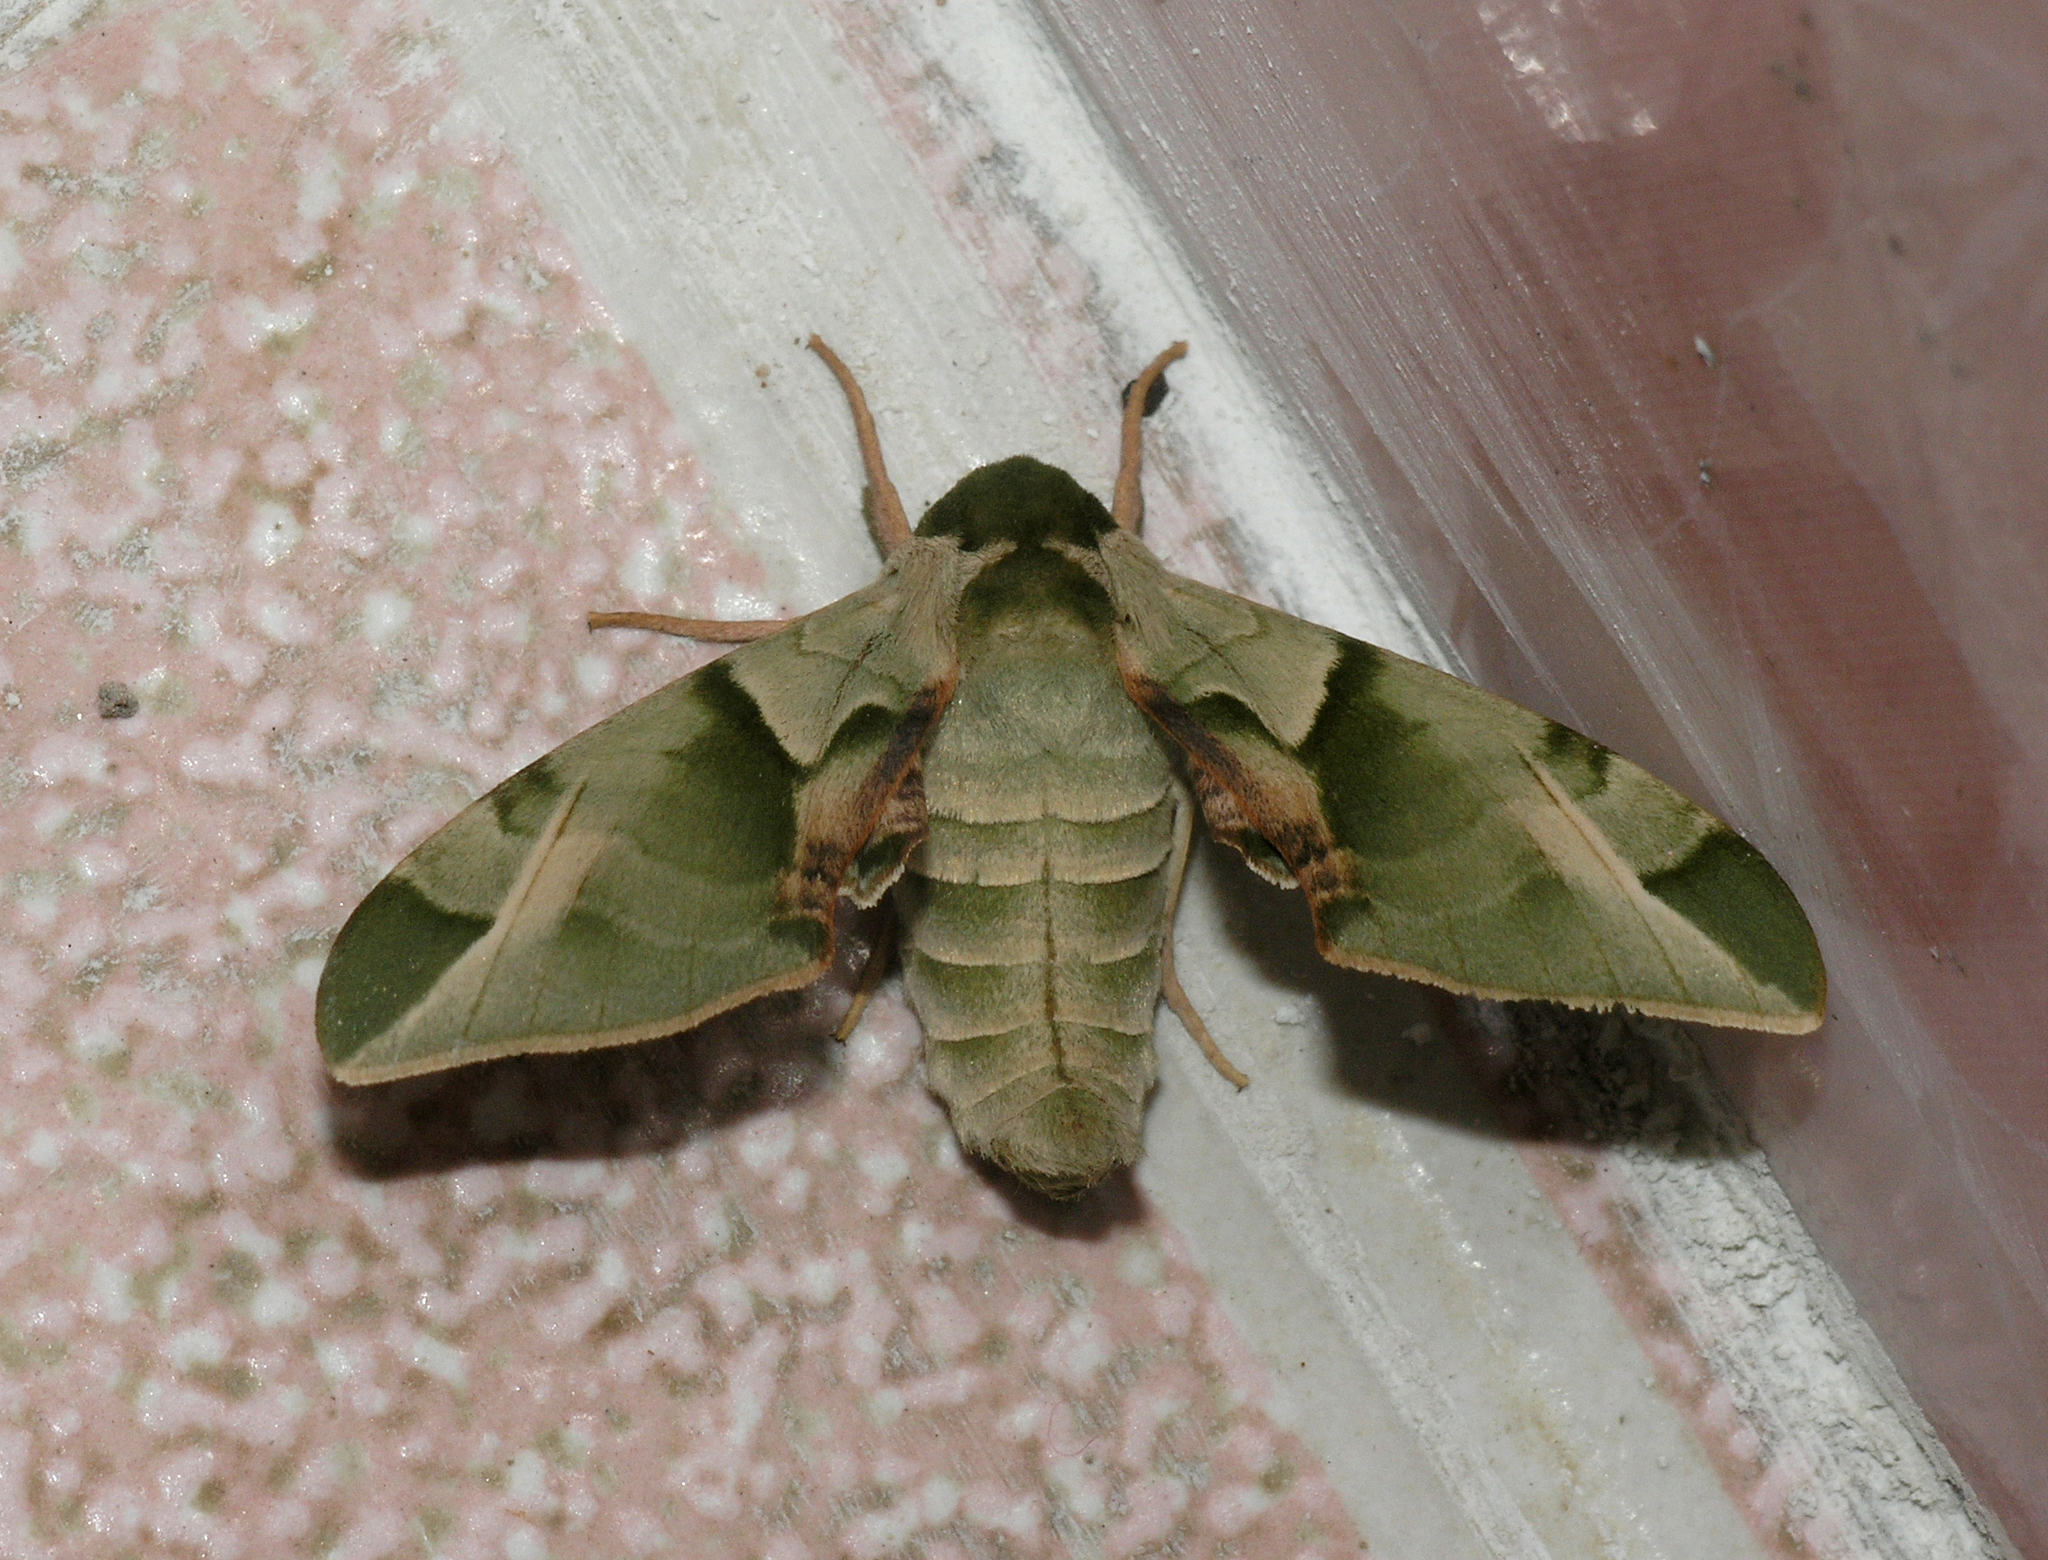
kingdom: Animalia
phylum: Arthropoda
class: Insecta
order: Lepidoptera
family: Sphingidae
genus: Callambulyx
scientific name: Callambulyx tatarinovii
